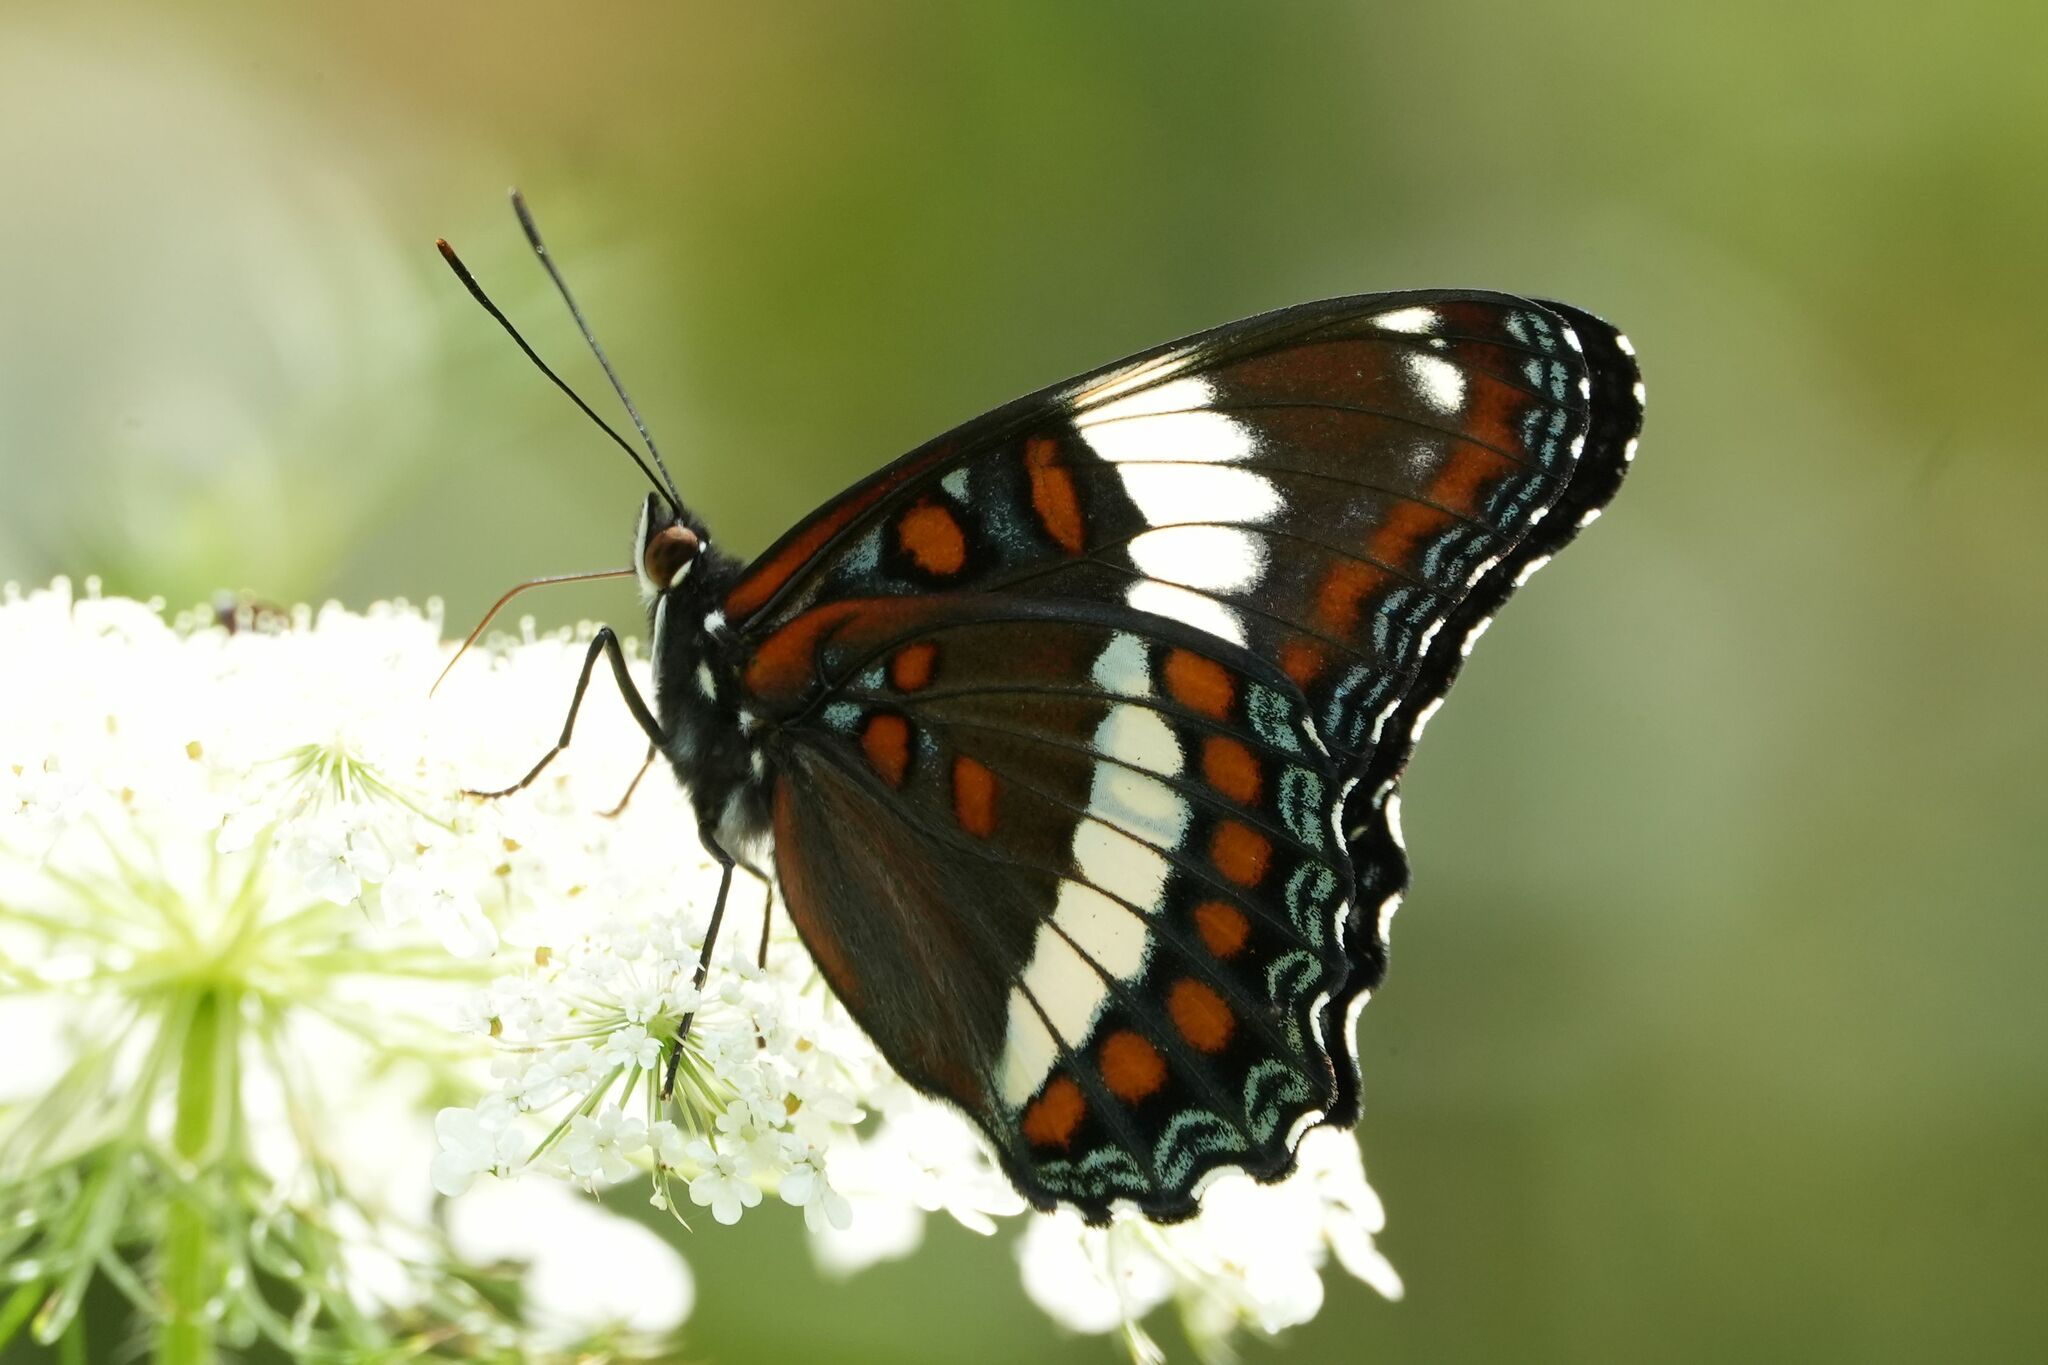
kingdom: Animalia
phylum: Arthropoda
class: Insecta
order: Lepidoptera
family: Nymphalidae
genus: Limenitis
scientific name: Limenitis arthemis
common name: Red-spotted admiral
